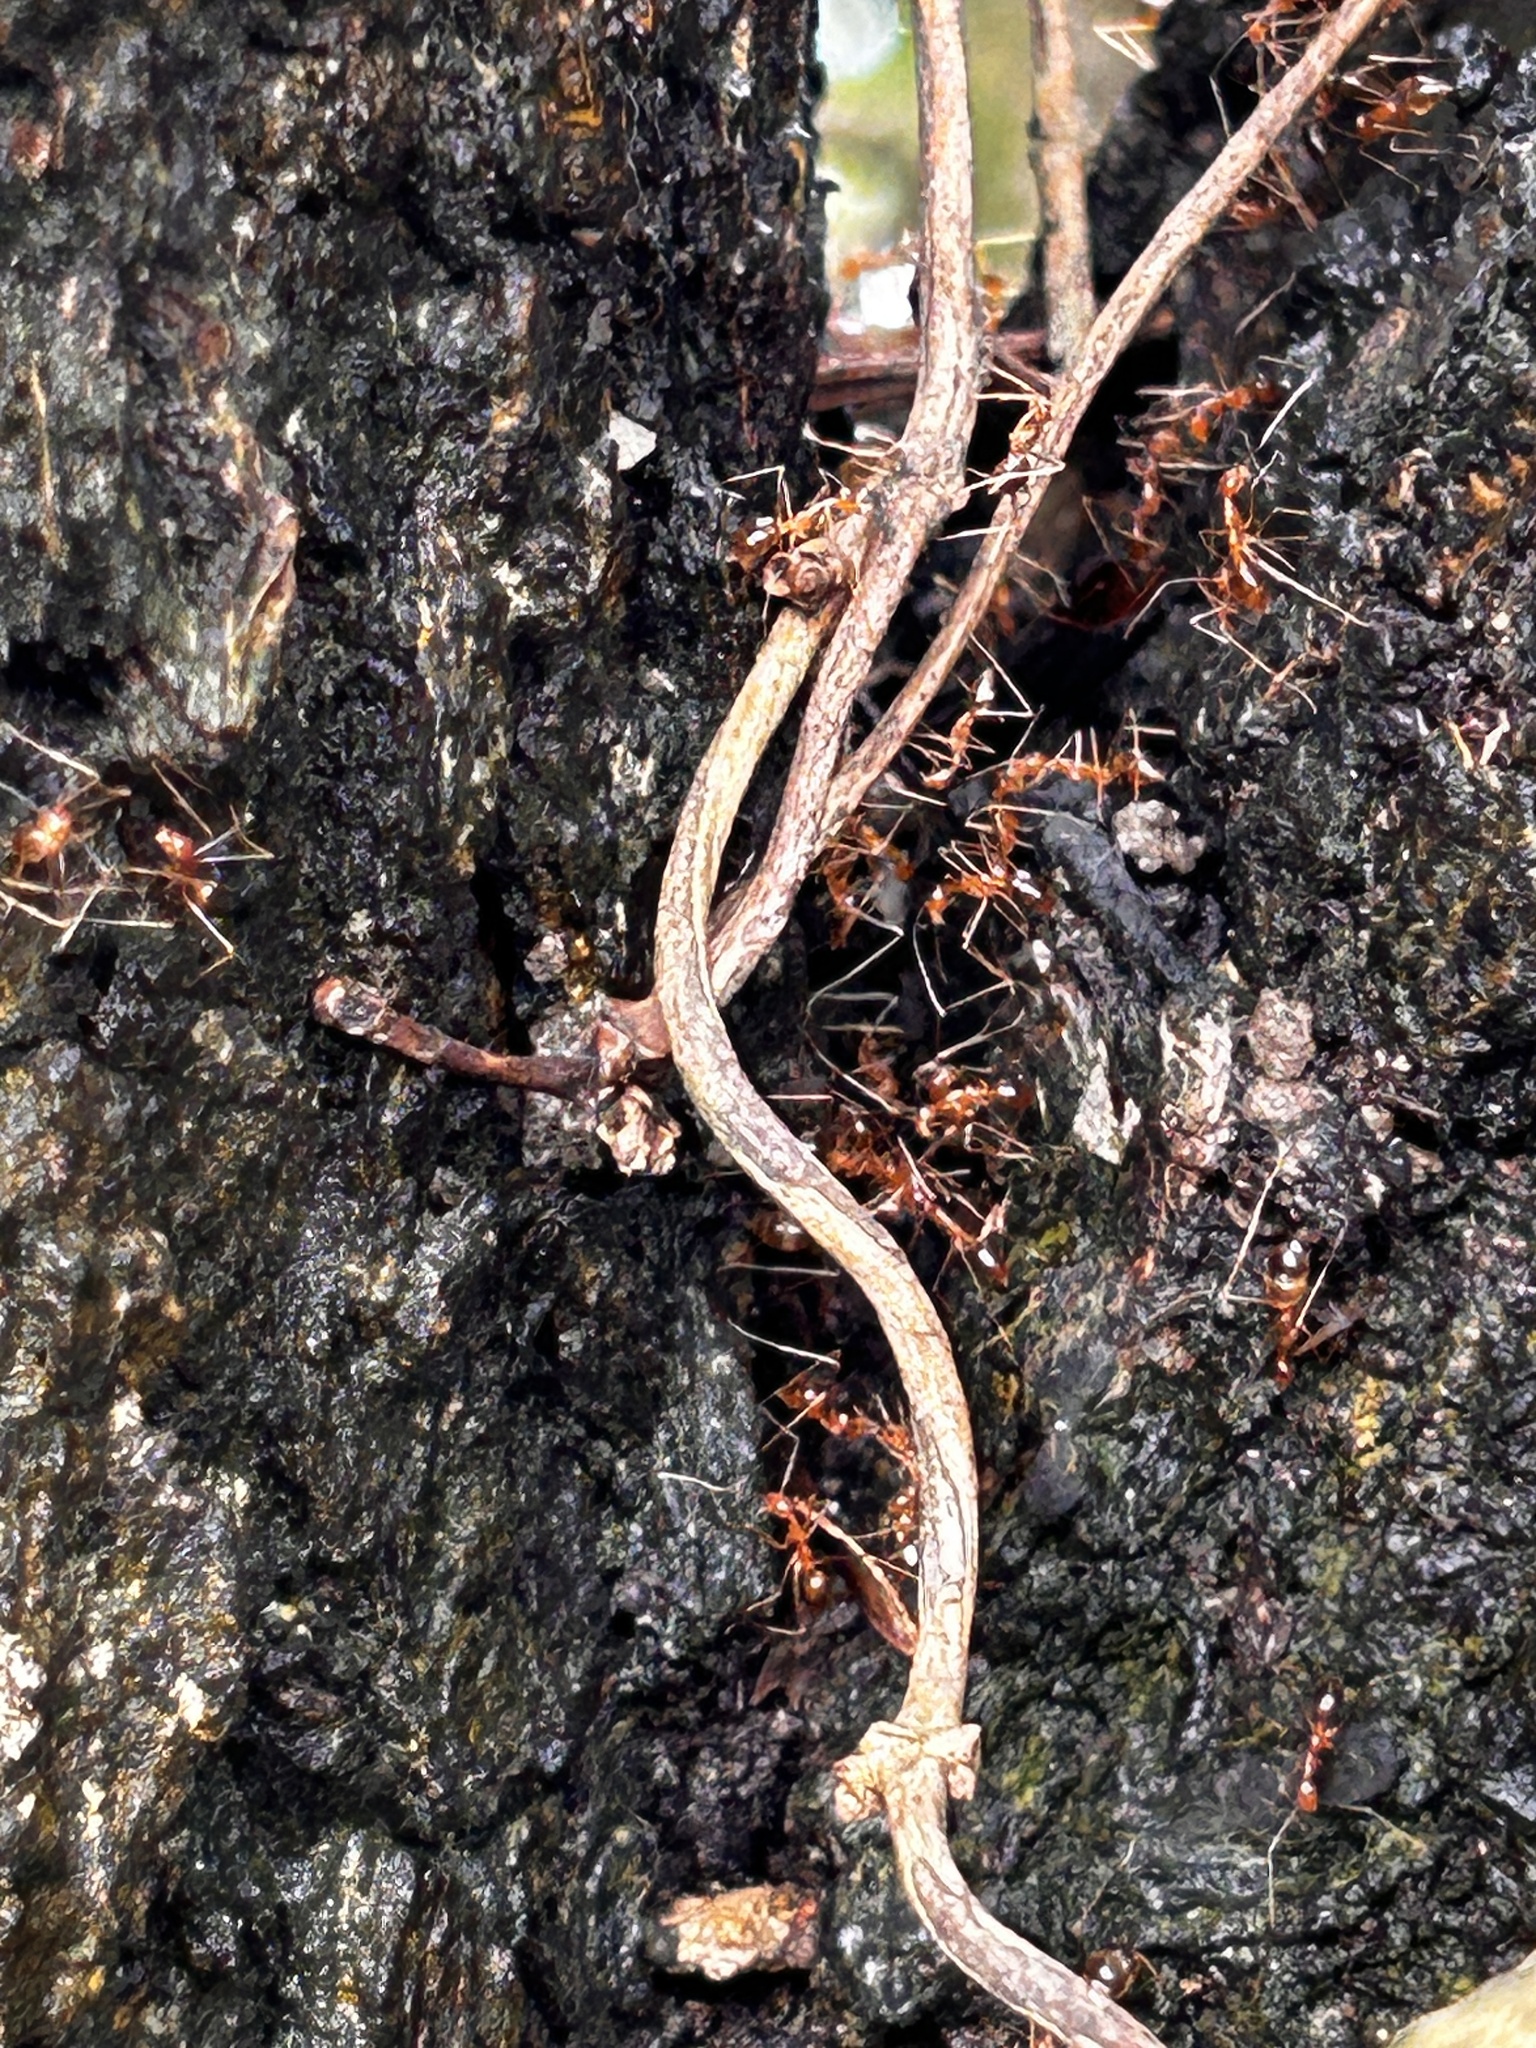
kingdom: Animalia
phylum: Arthropoda
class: Insecta
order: Hymenoptera
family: Formicidae
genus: Anoplolepis
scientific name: Anoplolepis gracilipes
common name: Ant
